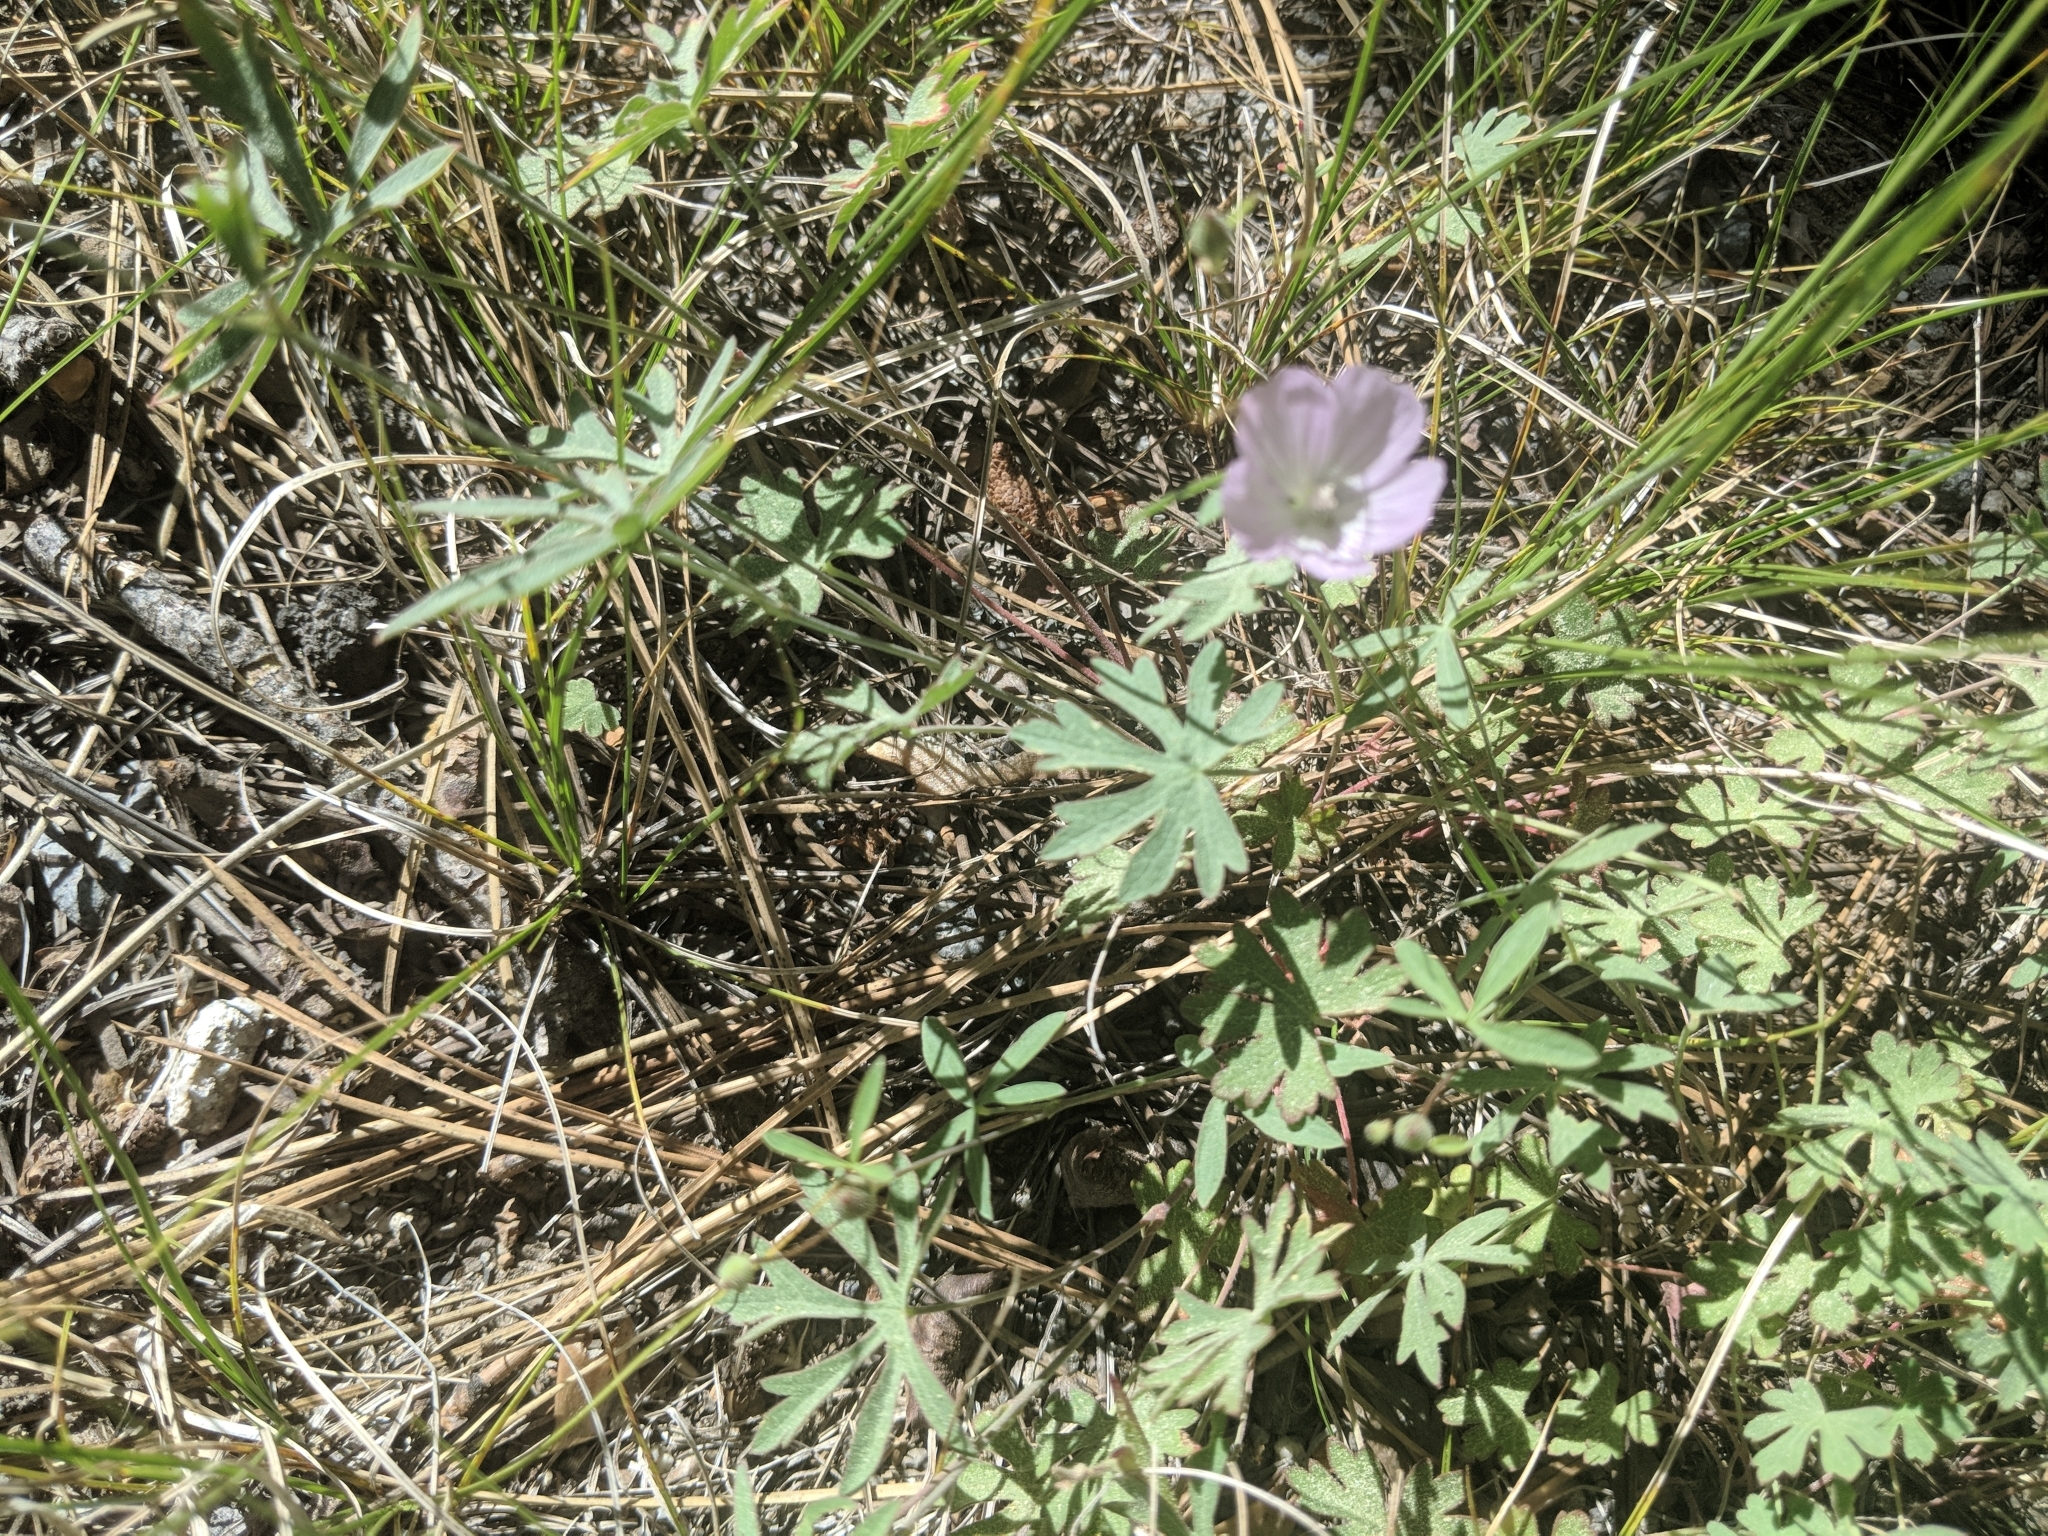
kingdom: Plantae
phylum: Tracheophyta
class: Magnoliopsida
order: Malvales
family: Malvaceae
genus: Sidalcea
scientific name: Sidalcea glaucescens
